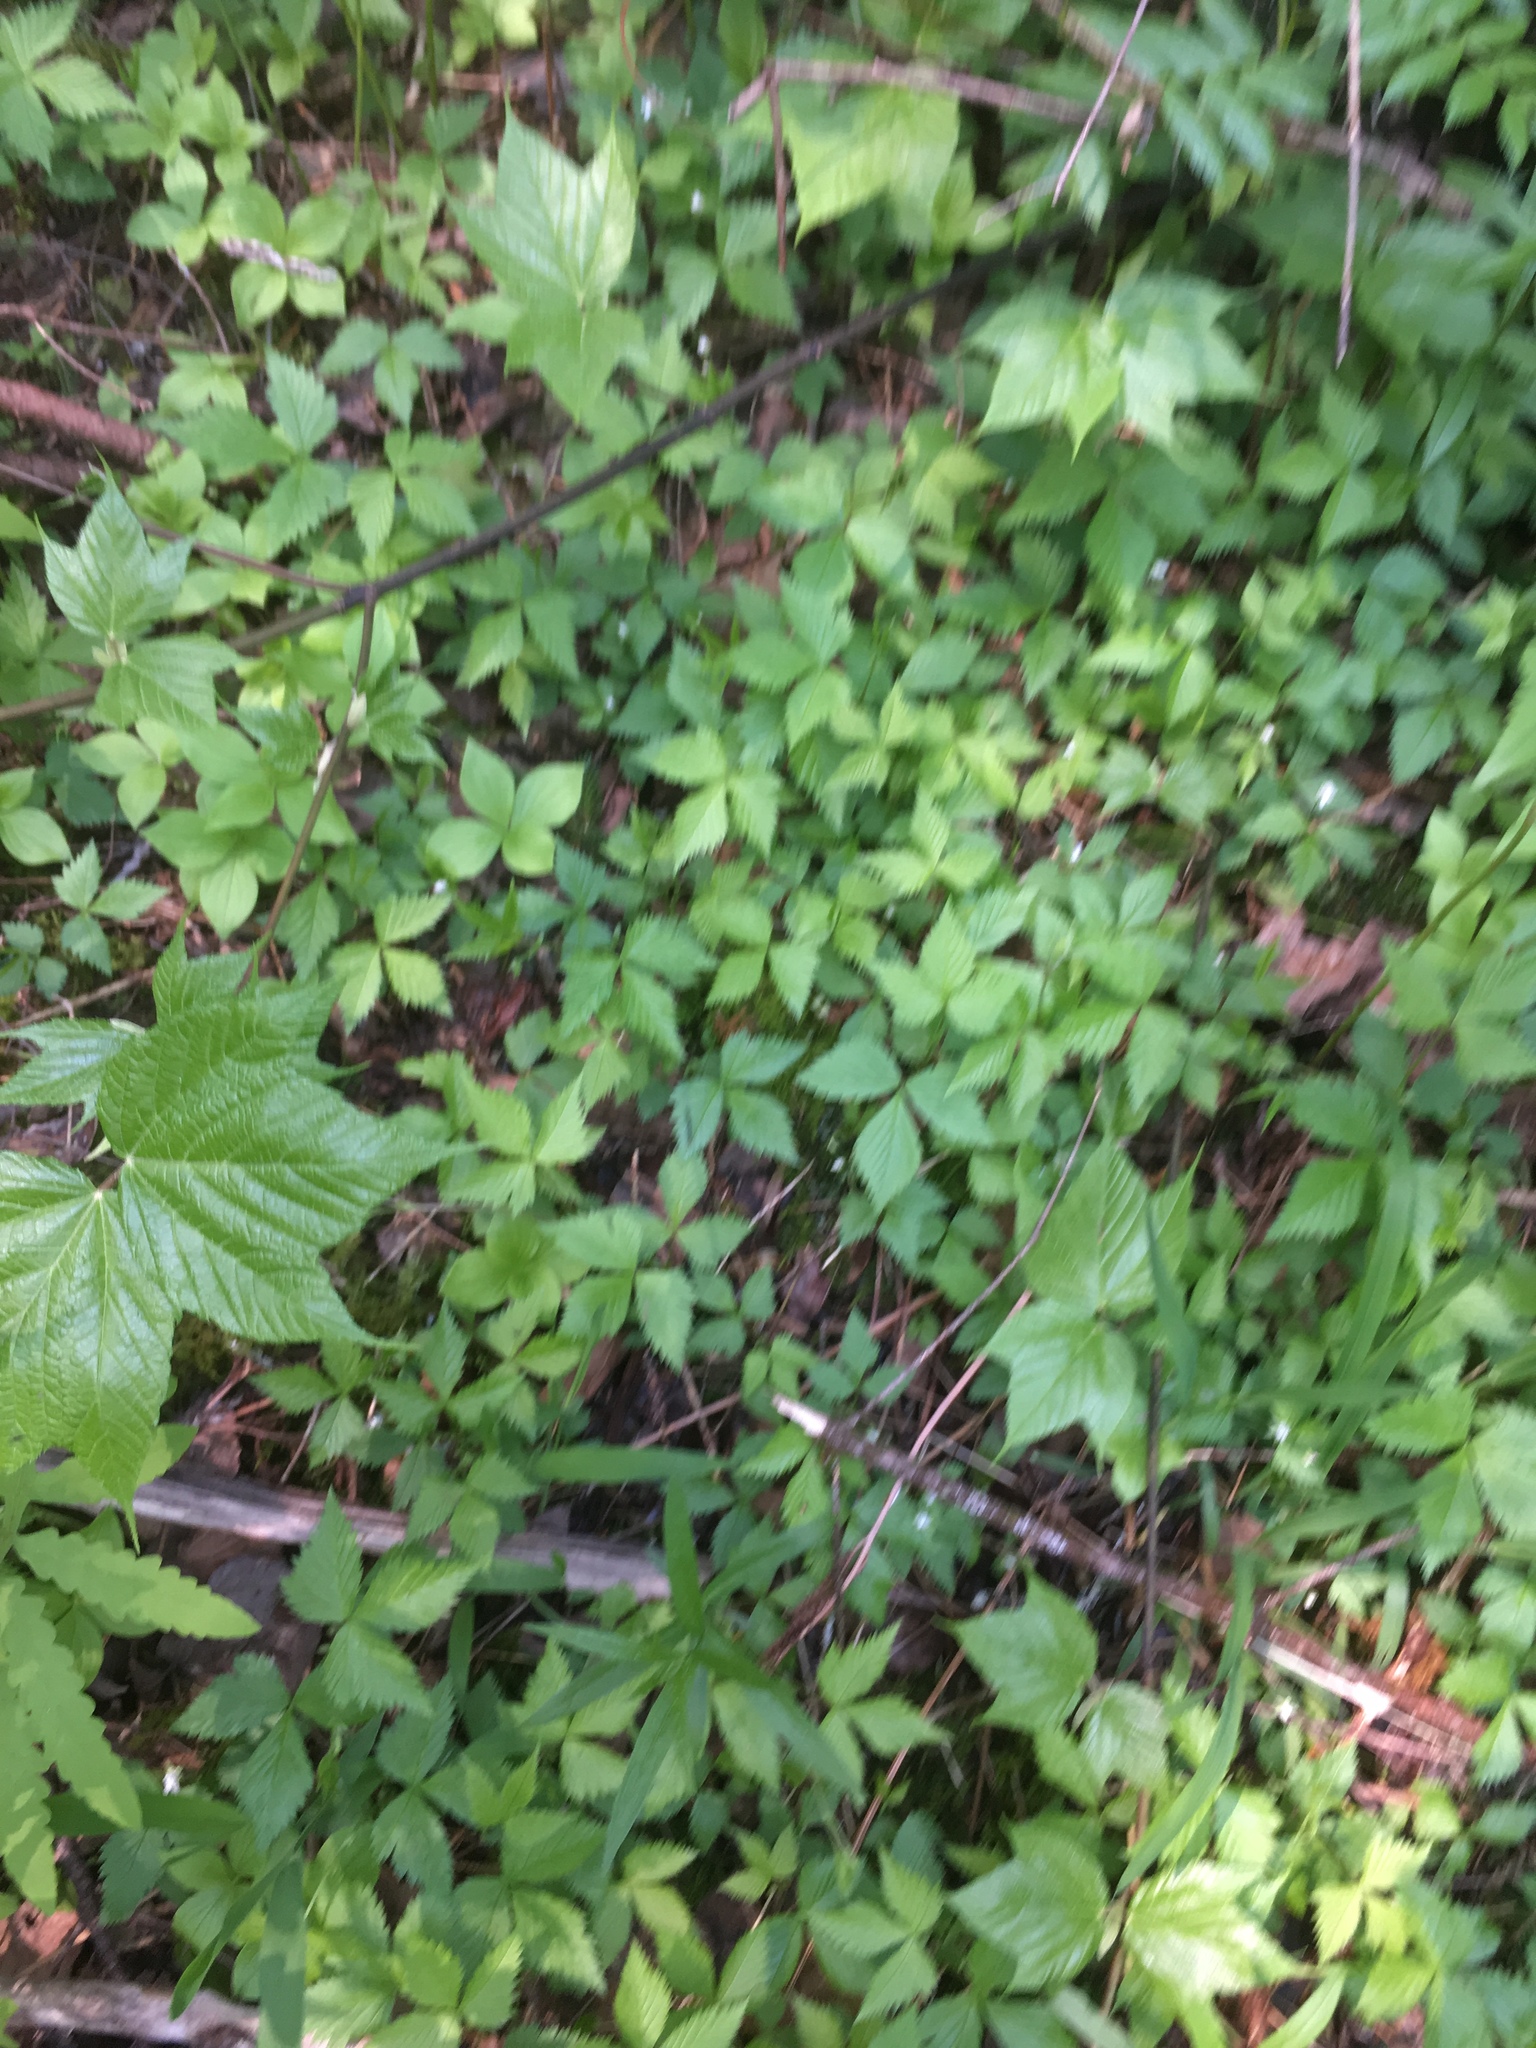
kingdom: Plantae
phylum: Tracheophyta
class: Magnoliopsida
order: Rosales
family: Rosaceae
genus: Rubus
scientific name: Rubus pubescens
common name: Dwarf raspberry
